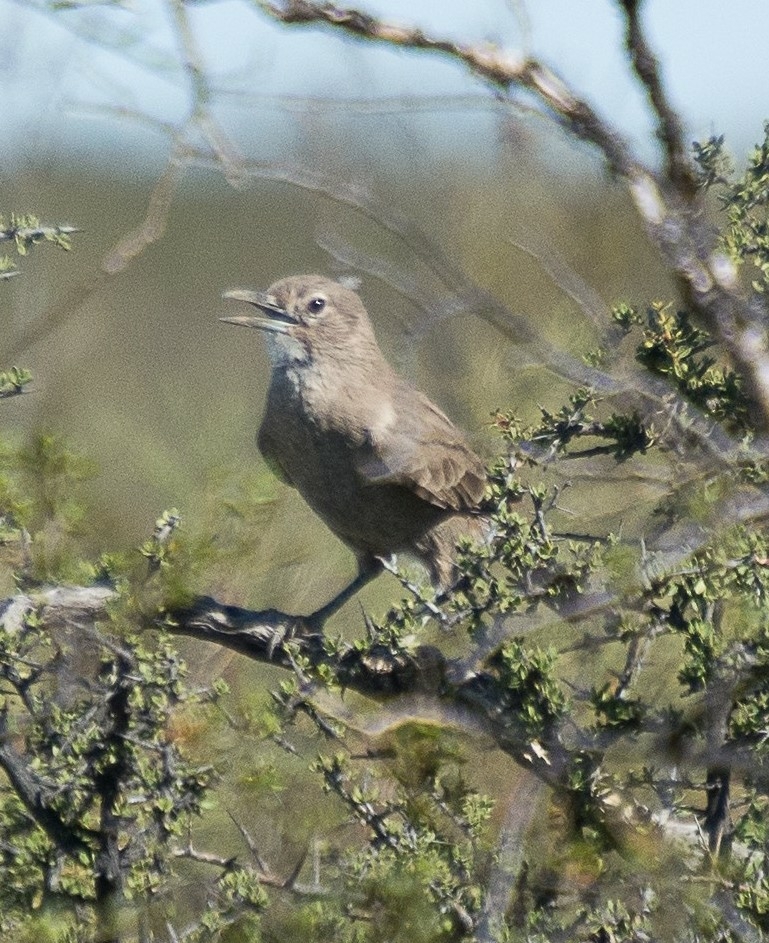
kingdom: Animalia
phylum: Chordata
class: Aves
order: Passeriformes
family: Furnariidae
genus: Pseudoseisura
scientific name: Pseudoseisura gutturalis
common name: White-throated cacholote
